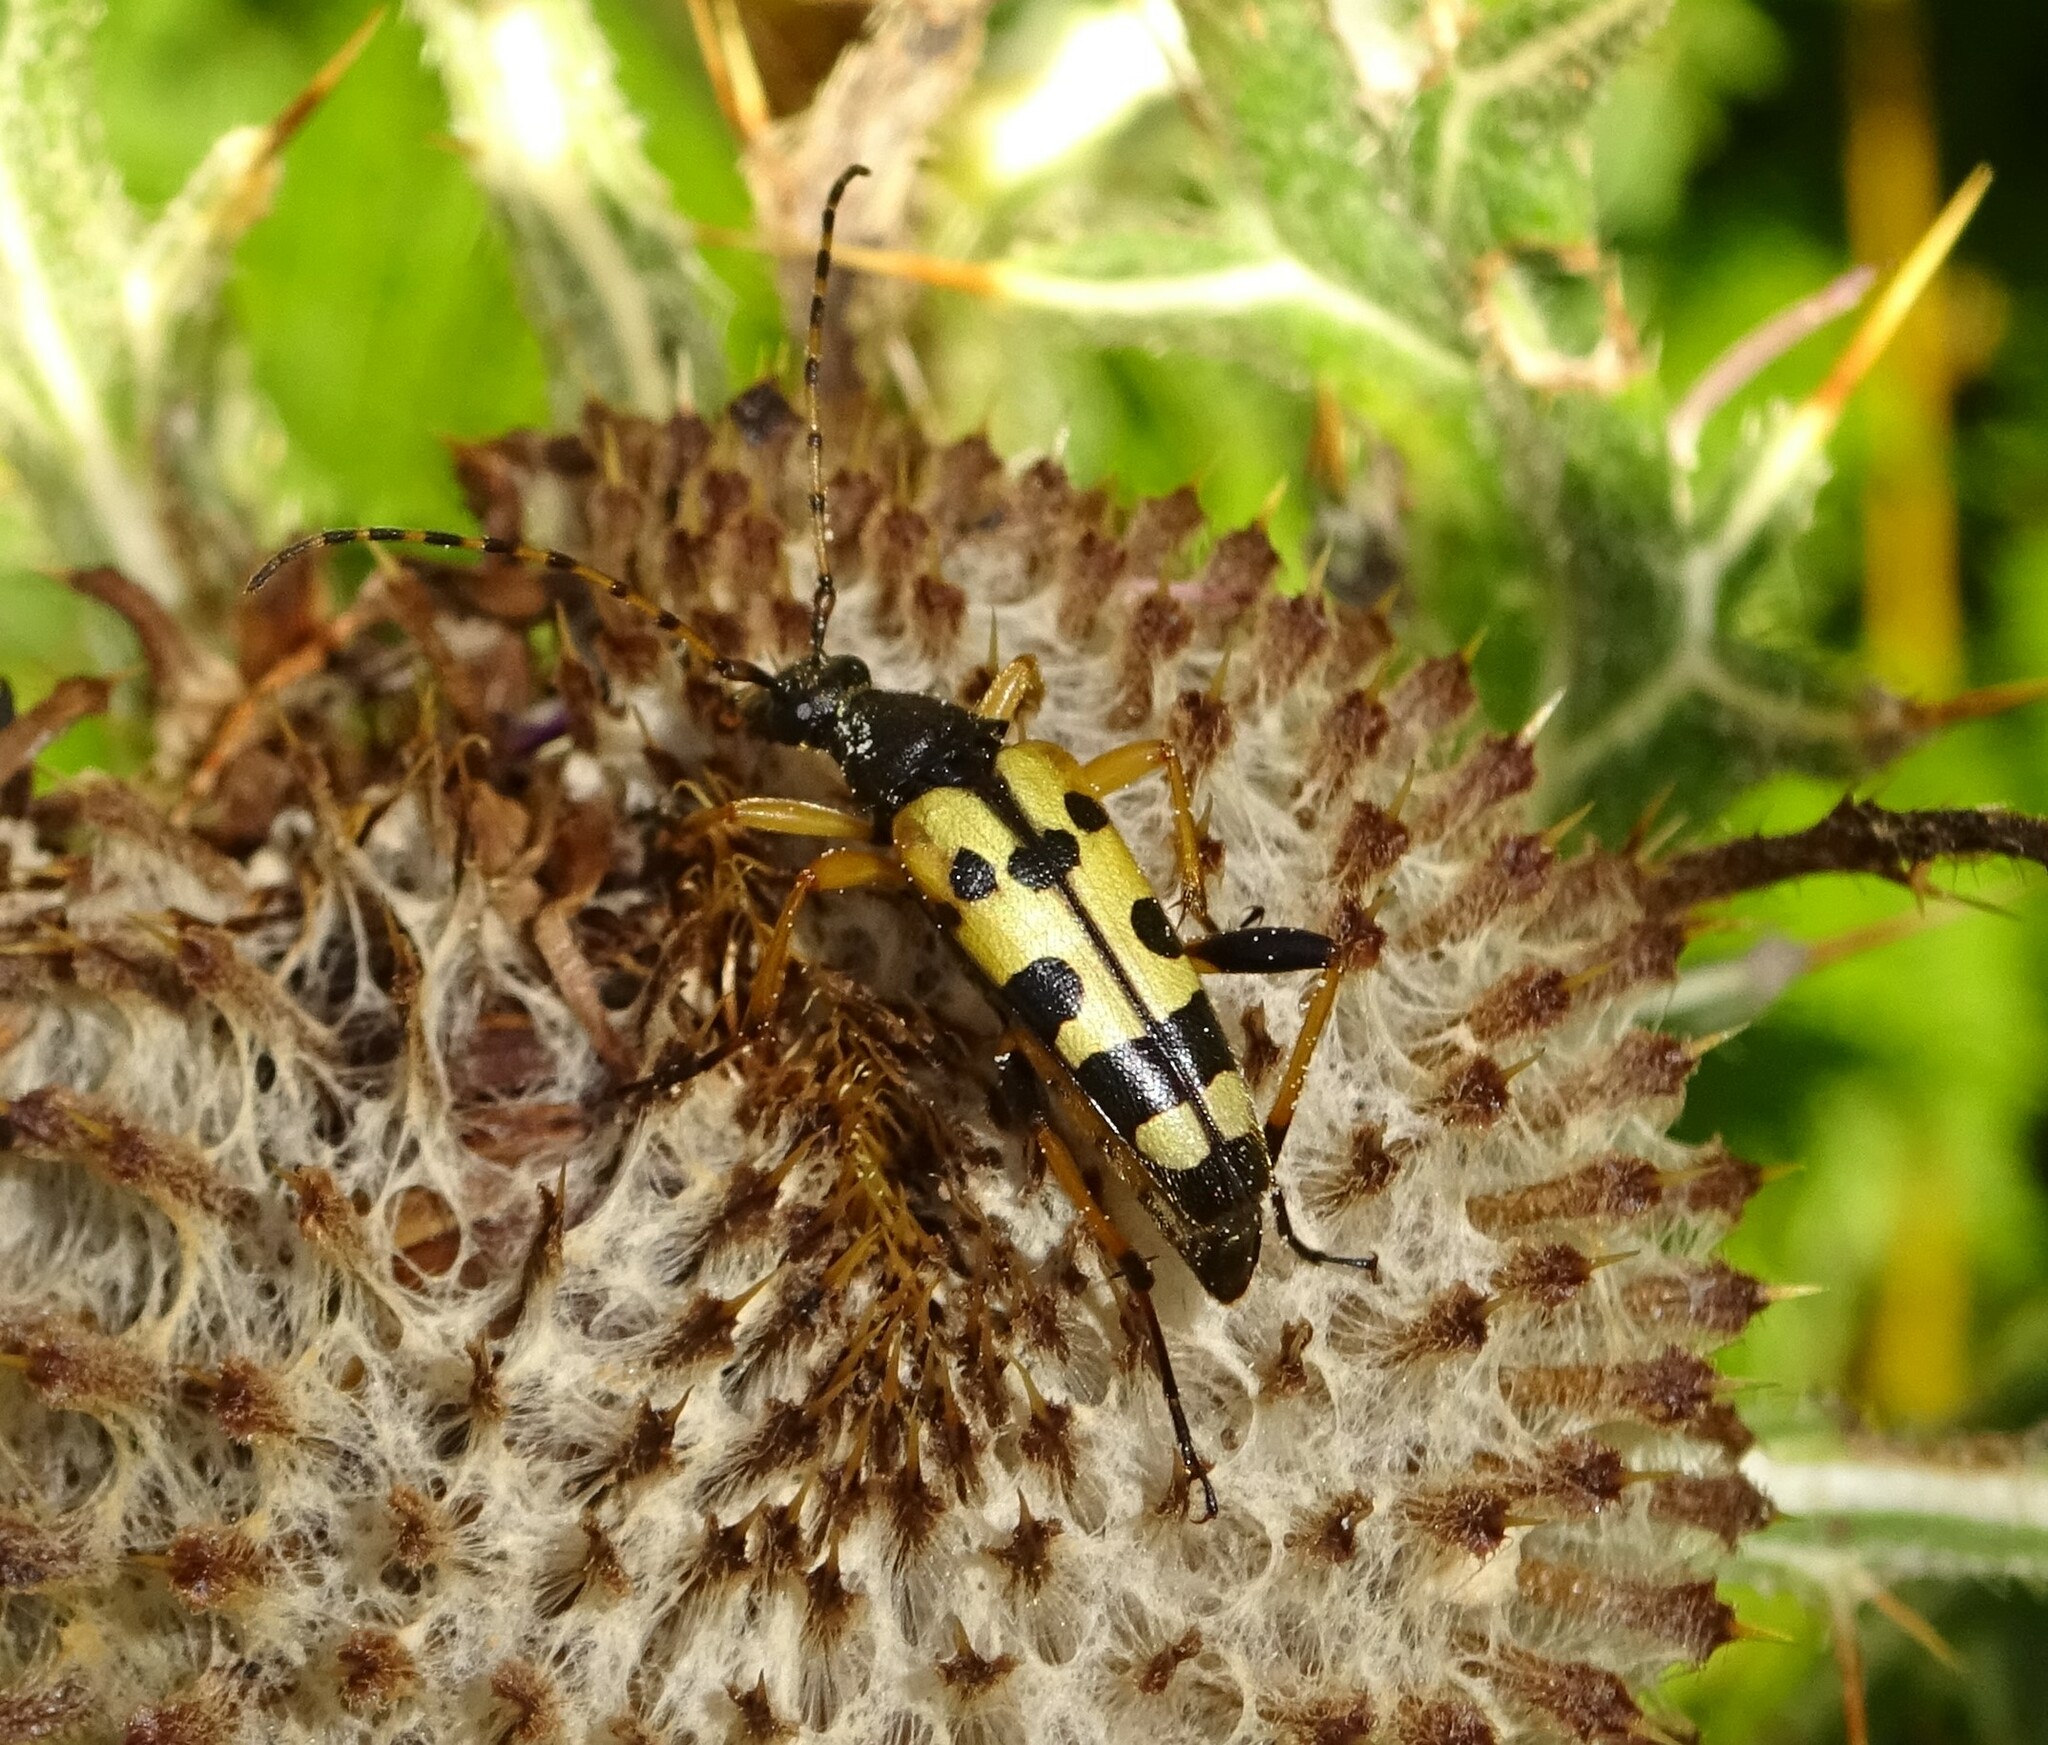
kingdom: Animalia
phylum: Arthropoda
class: Insecta
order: Coleoptera
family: Cerambycidae
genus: Rutpela
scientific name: Rutpela maculata
